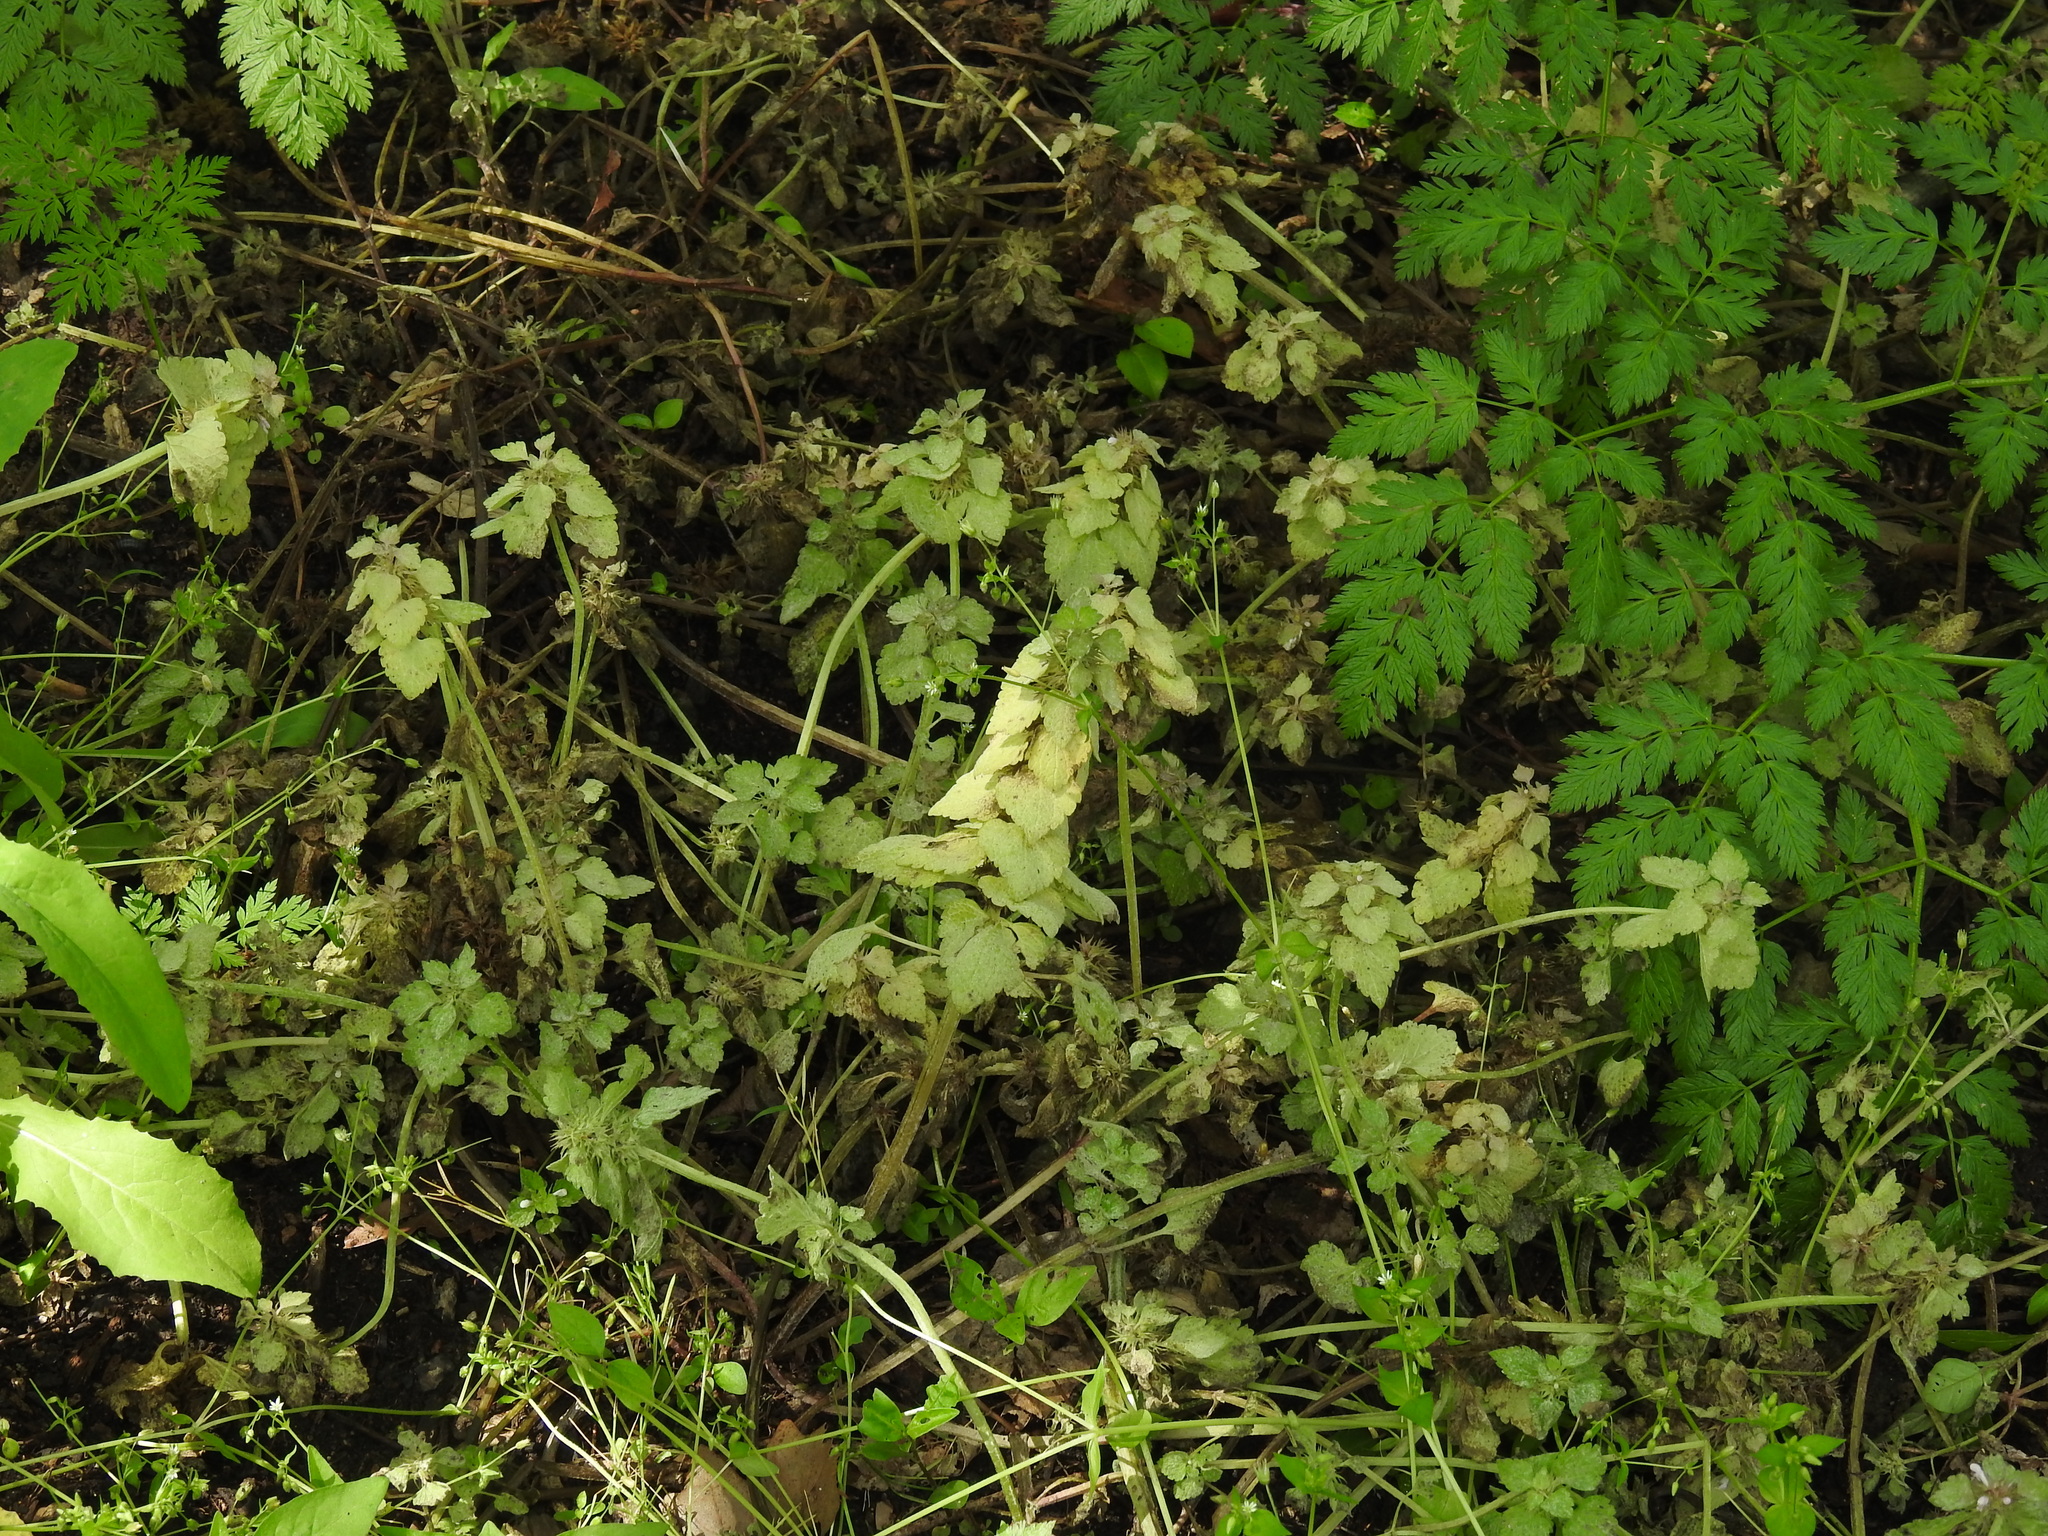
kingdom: Plantae
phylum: Tracheophyta
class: Magnoliopsida
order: Lamiales
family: Lamiaceae
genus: Lamium
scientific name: Lamium purpureum
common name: Red dead-nettle
